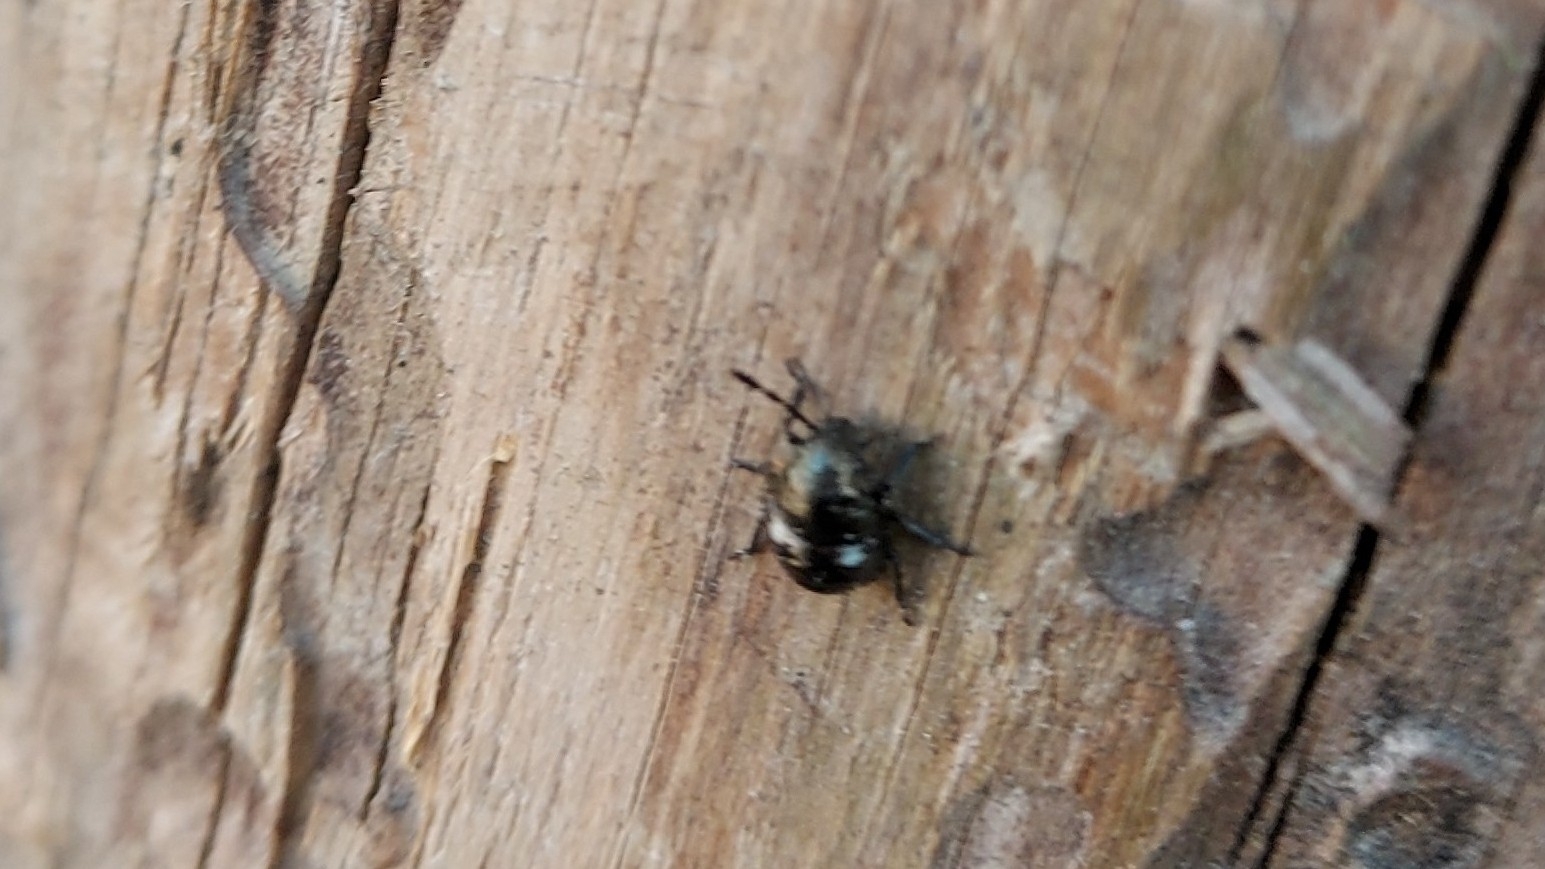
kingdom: Animalia
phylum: Arthropoda
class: Insecta
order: Hemiptera
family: Pentatomidae
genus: Chlorochroa
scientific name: Chlorochroa
